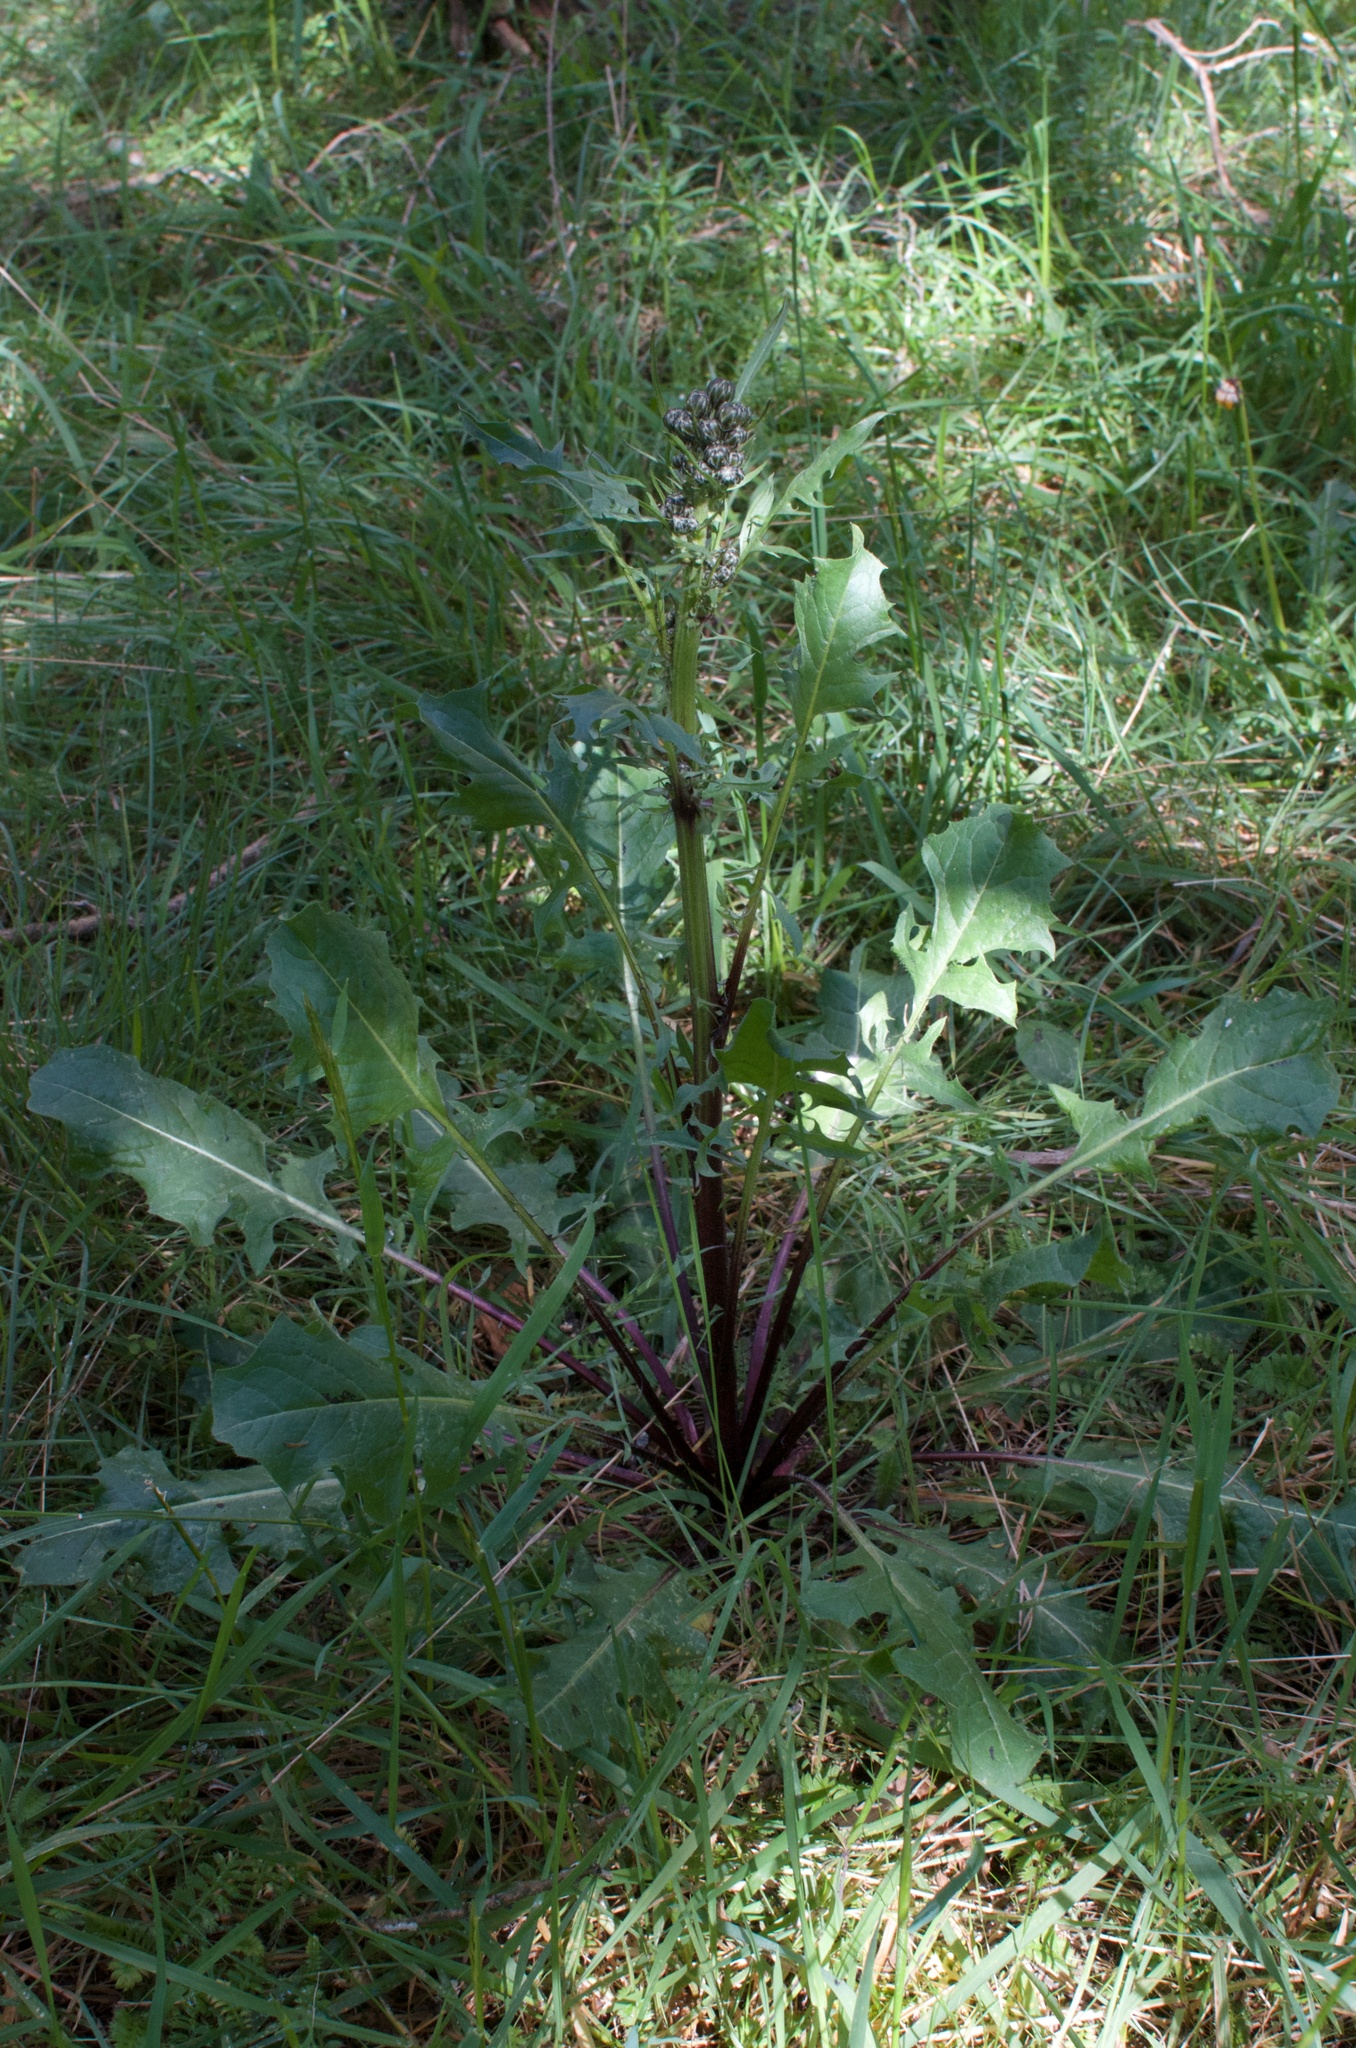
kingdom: Plantae
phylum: Tracheophyta
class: Magnoliopsida
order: Asterales
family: Asteraceae
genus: Crepis
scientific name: Crepis vesicaria
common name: Beaked hawksbeard
